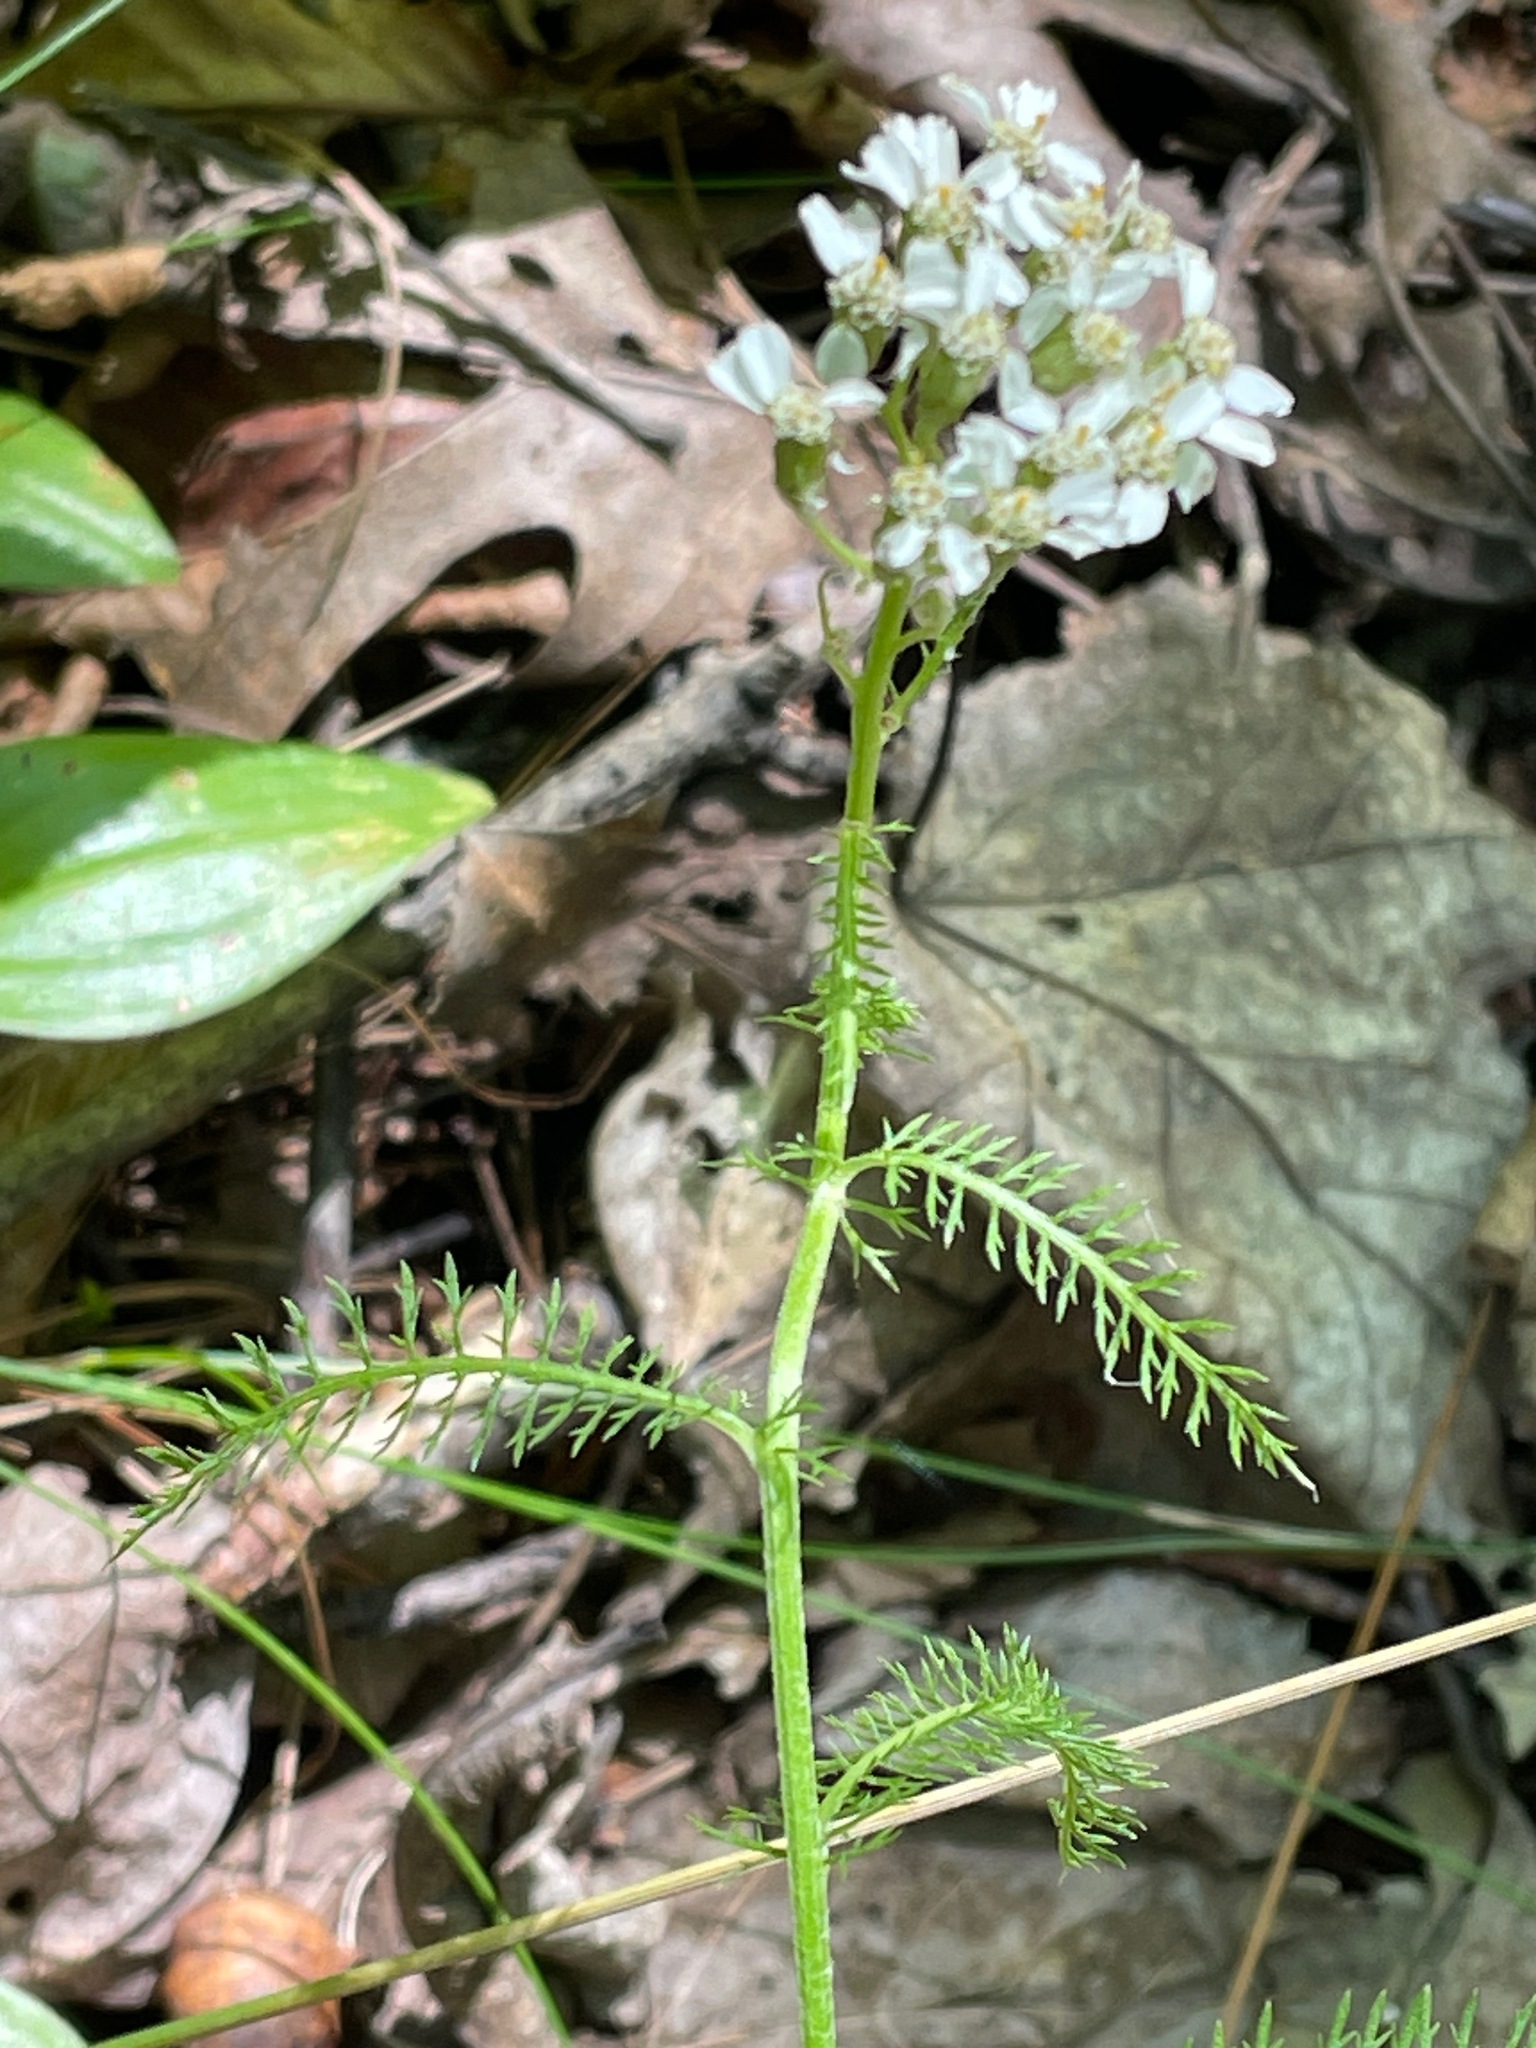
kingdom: Plantae
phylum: Tracheophyta
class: Magnoliopsida
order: Asterales
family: Asteraceae
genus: Achillea
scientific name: Achillea millefolium
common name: Yarrow
